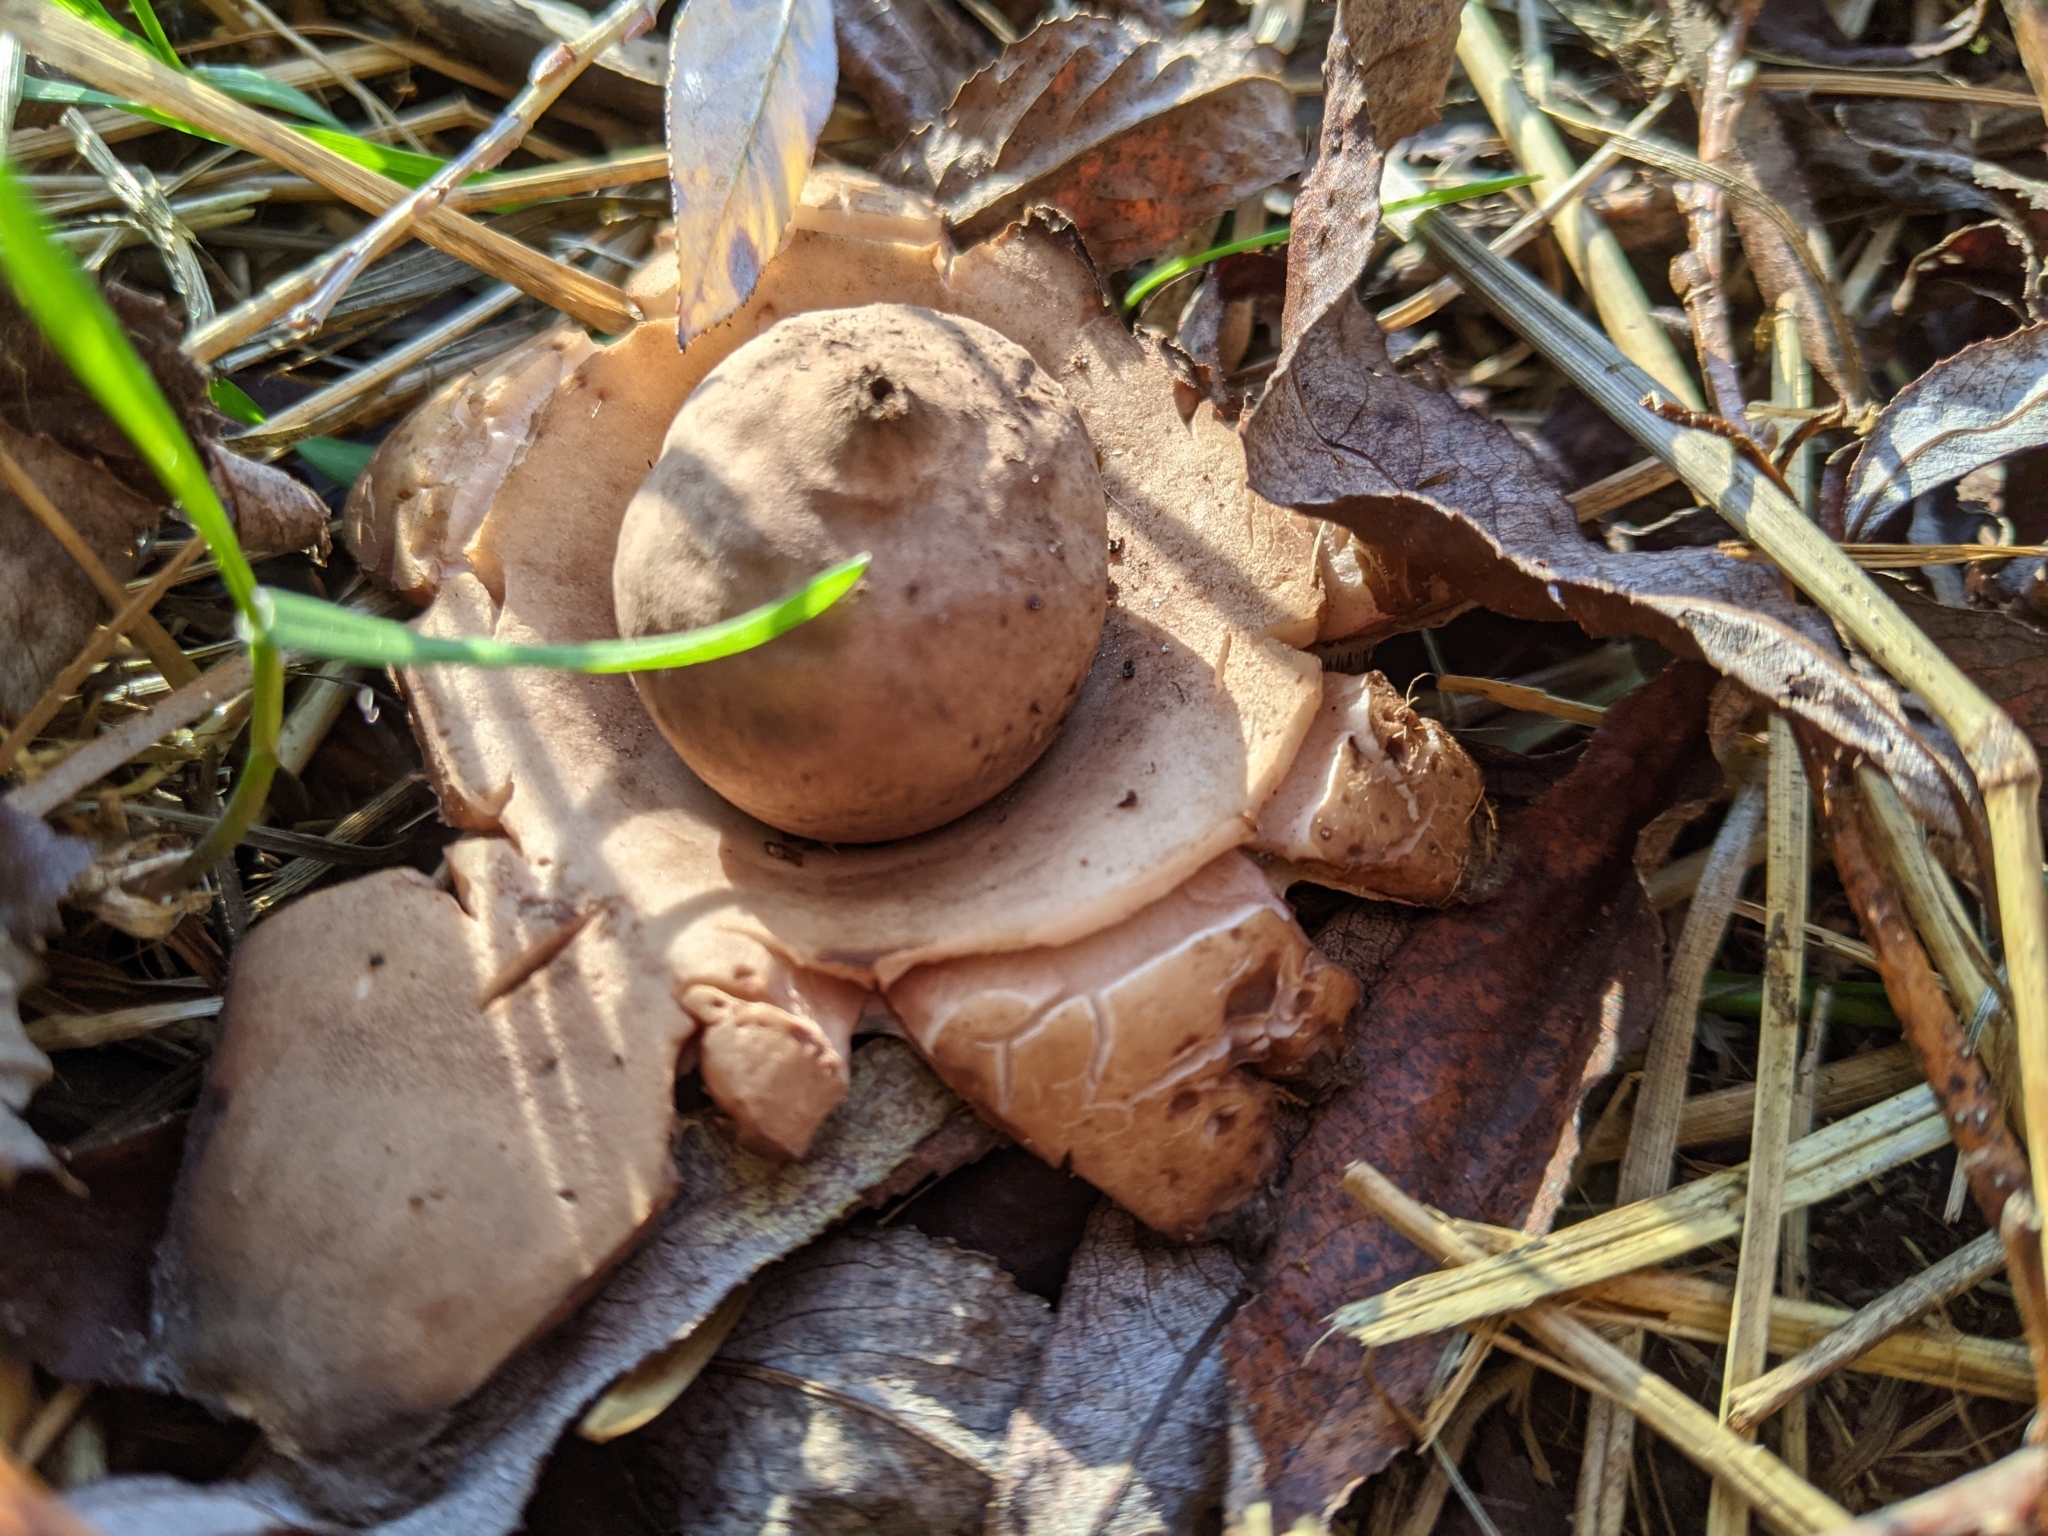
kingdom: Fungi
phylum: Basidiomycota
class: Agaricomycetes
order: Geastrales
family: Geastraceae
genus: Geastrum
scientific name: Geastrum triplex
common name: Collared earthstar
